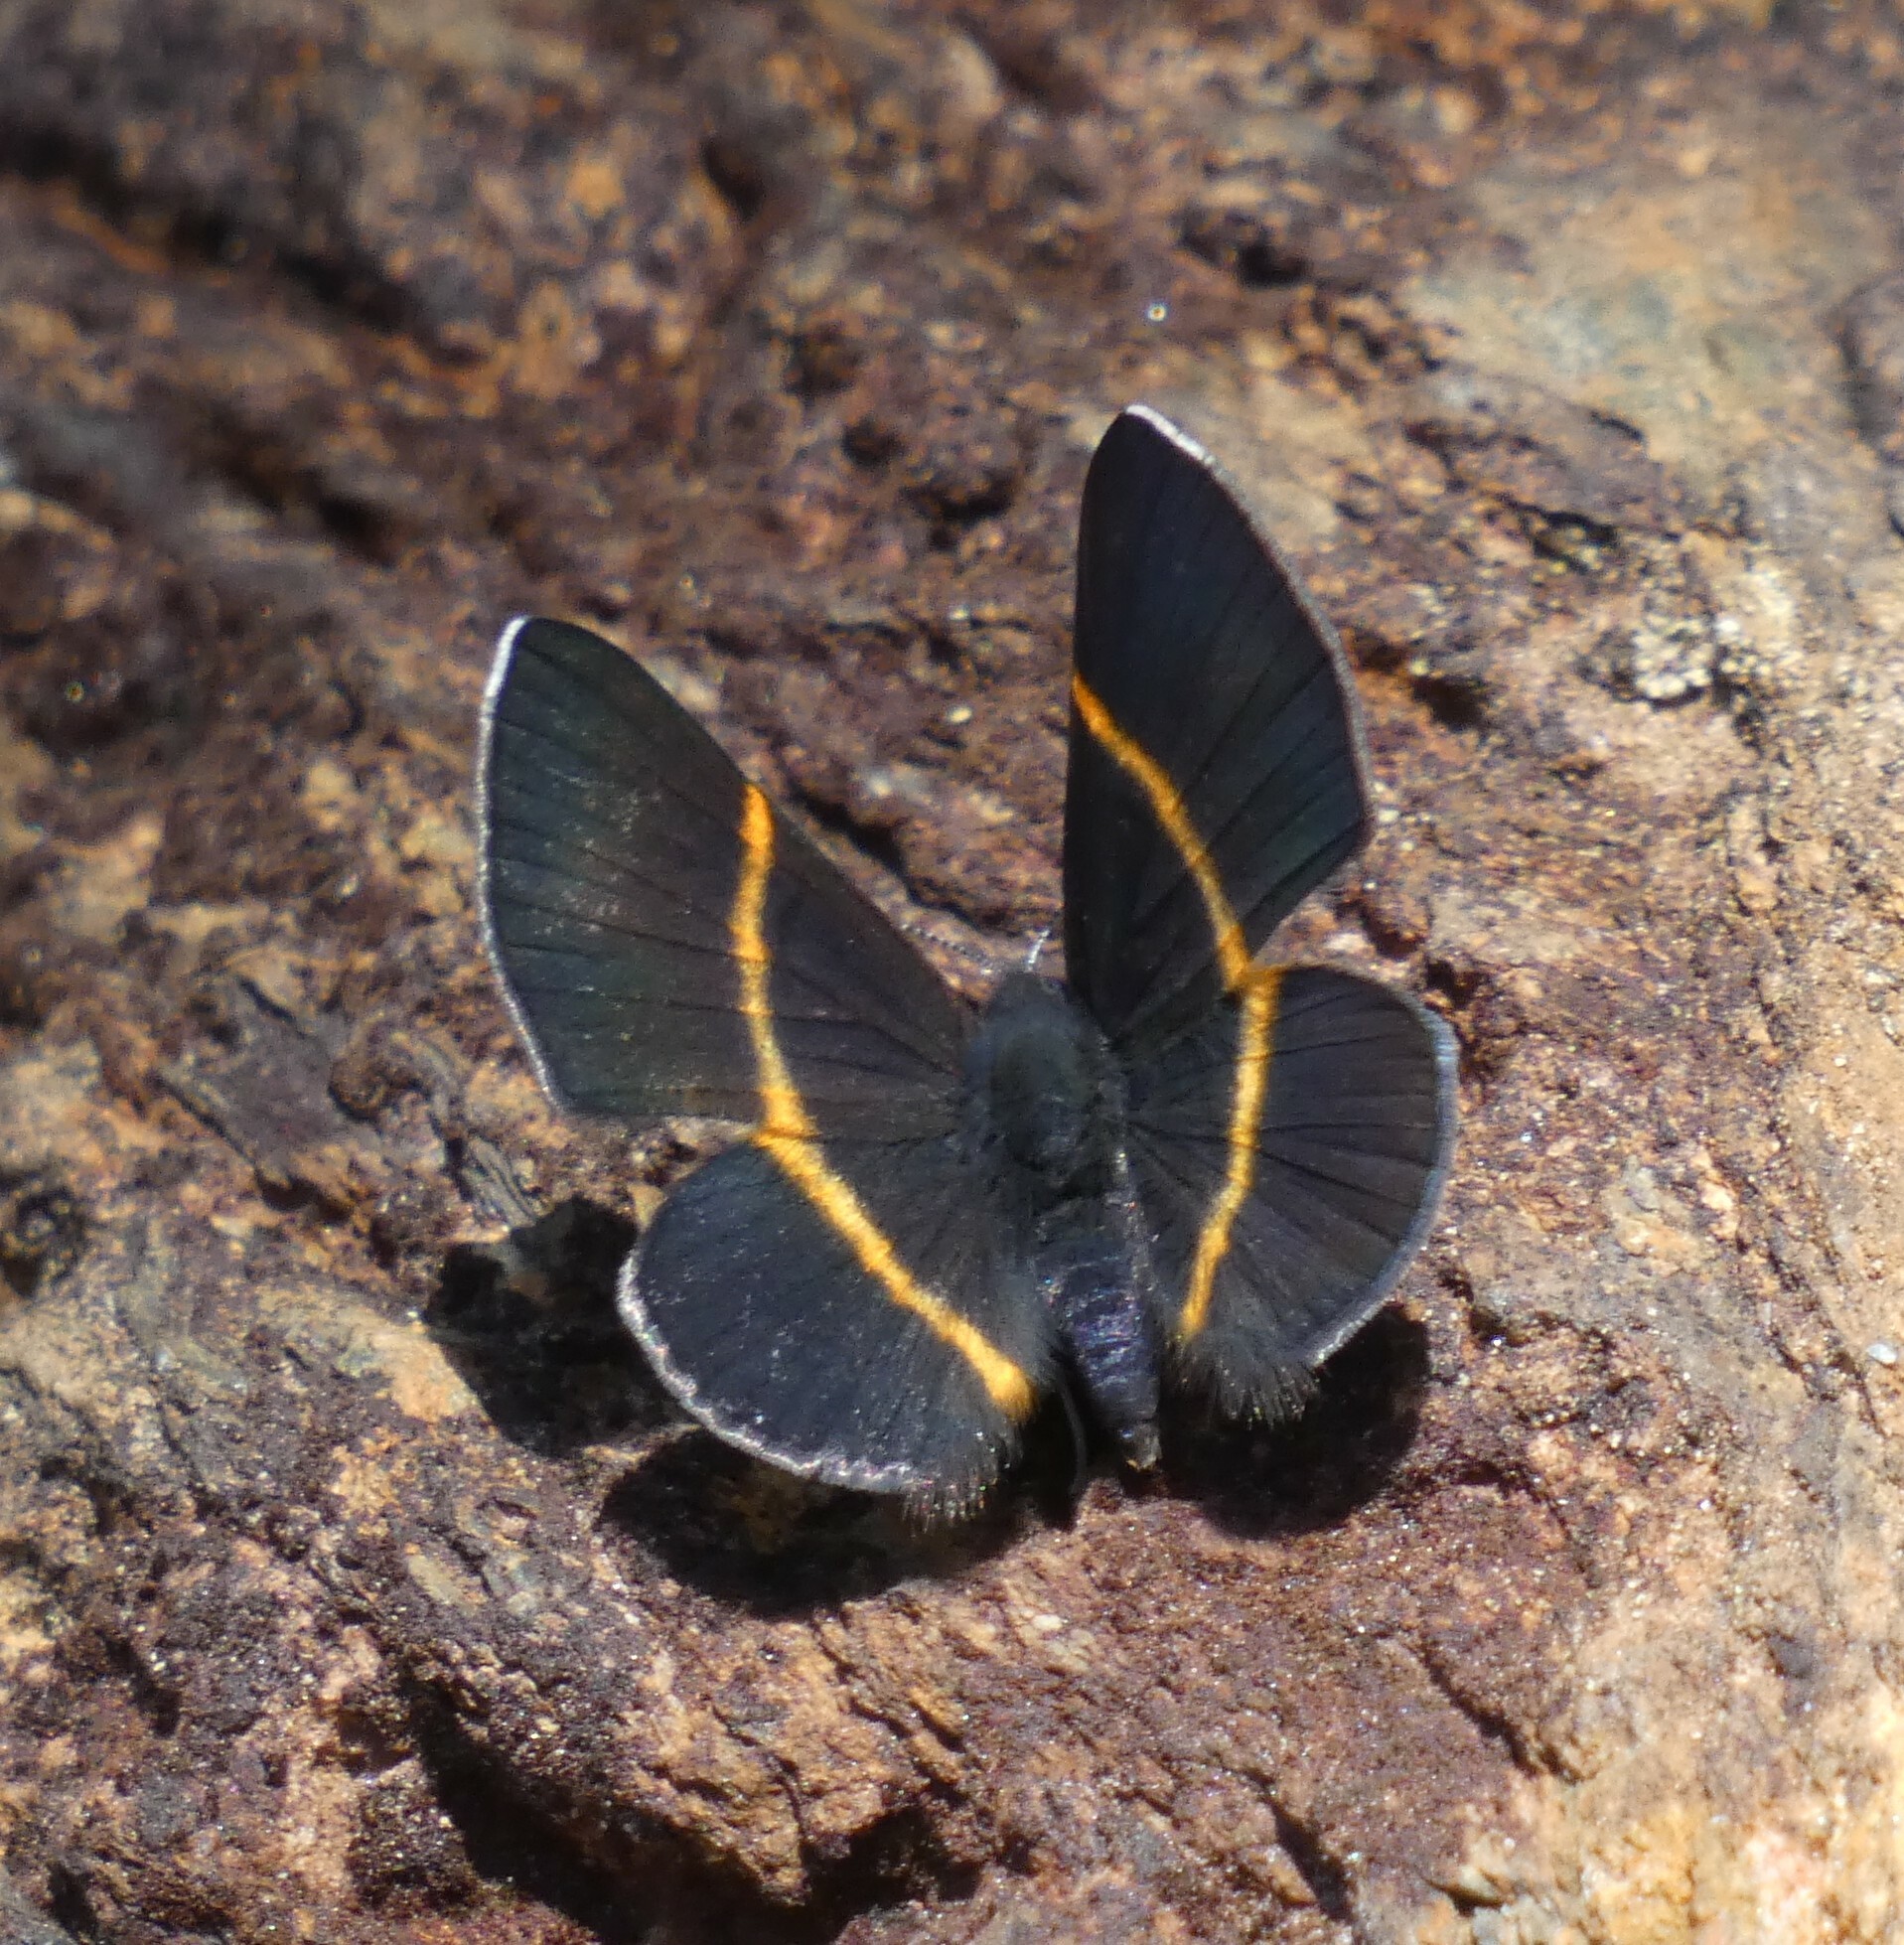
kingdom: Animalia
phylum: Arthropoda
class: Insecta
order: Lepidoptera
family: Riodinidae
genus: Parcella
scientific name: Parcella amarynthina
